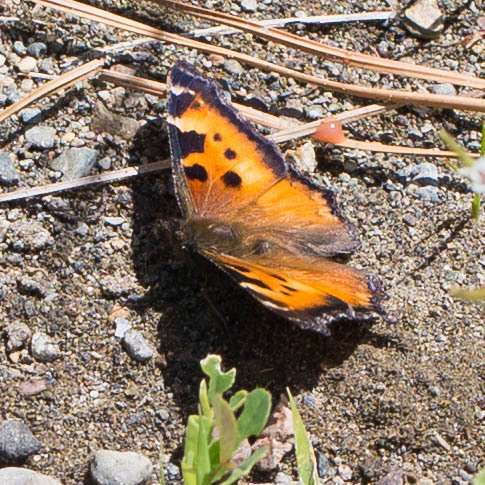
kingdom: Animalia
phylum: Arthropoda
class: Insecta
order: Lepidoptera
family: Nymphalidae
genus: Nymphalis
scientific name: Nymphalis californica
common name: California tortoiseshell
